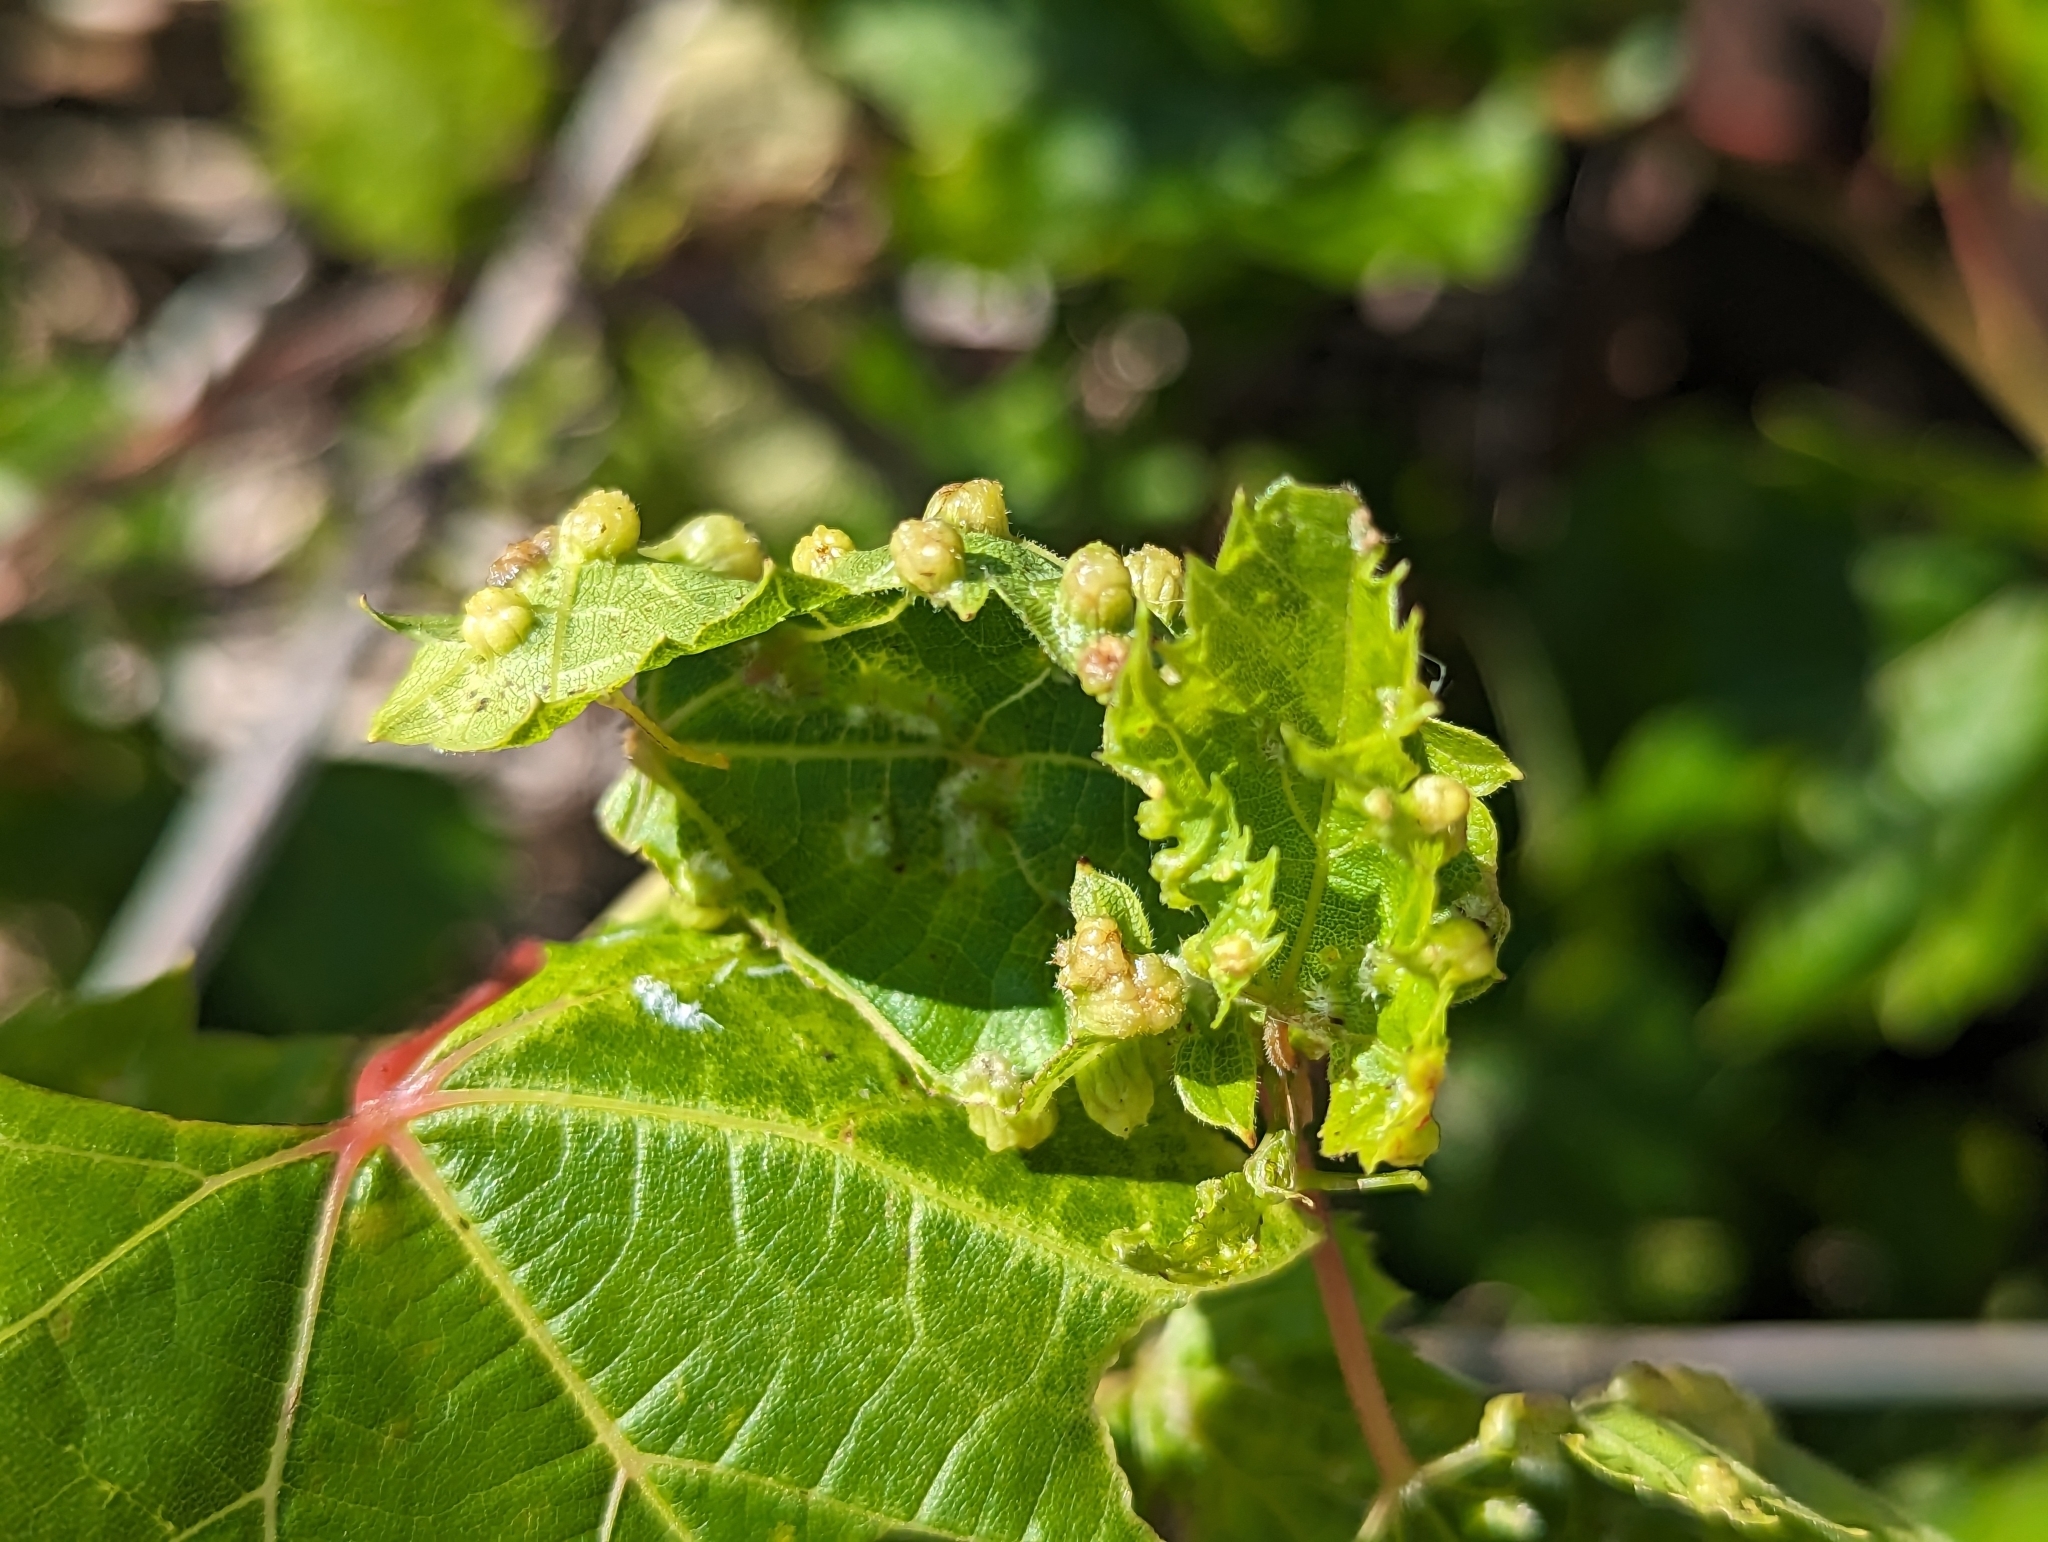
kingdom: Animalia
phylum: Arthropoda
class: Insecta
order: Hemiptera
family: Phylloxeridae
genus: Daktulosphaira
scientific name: Daktulosphaira vitifoliae
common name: Grape phylloxera
